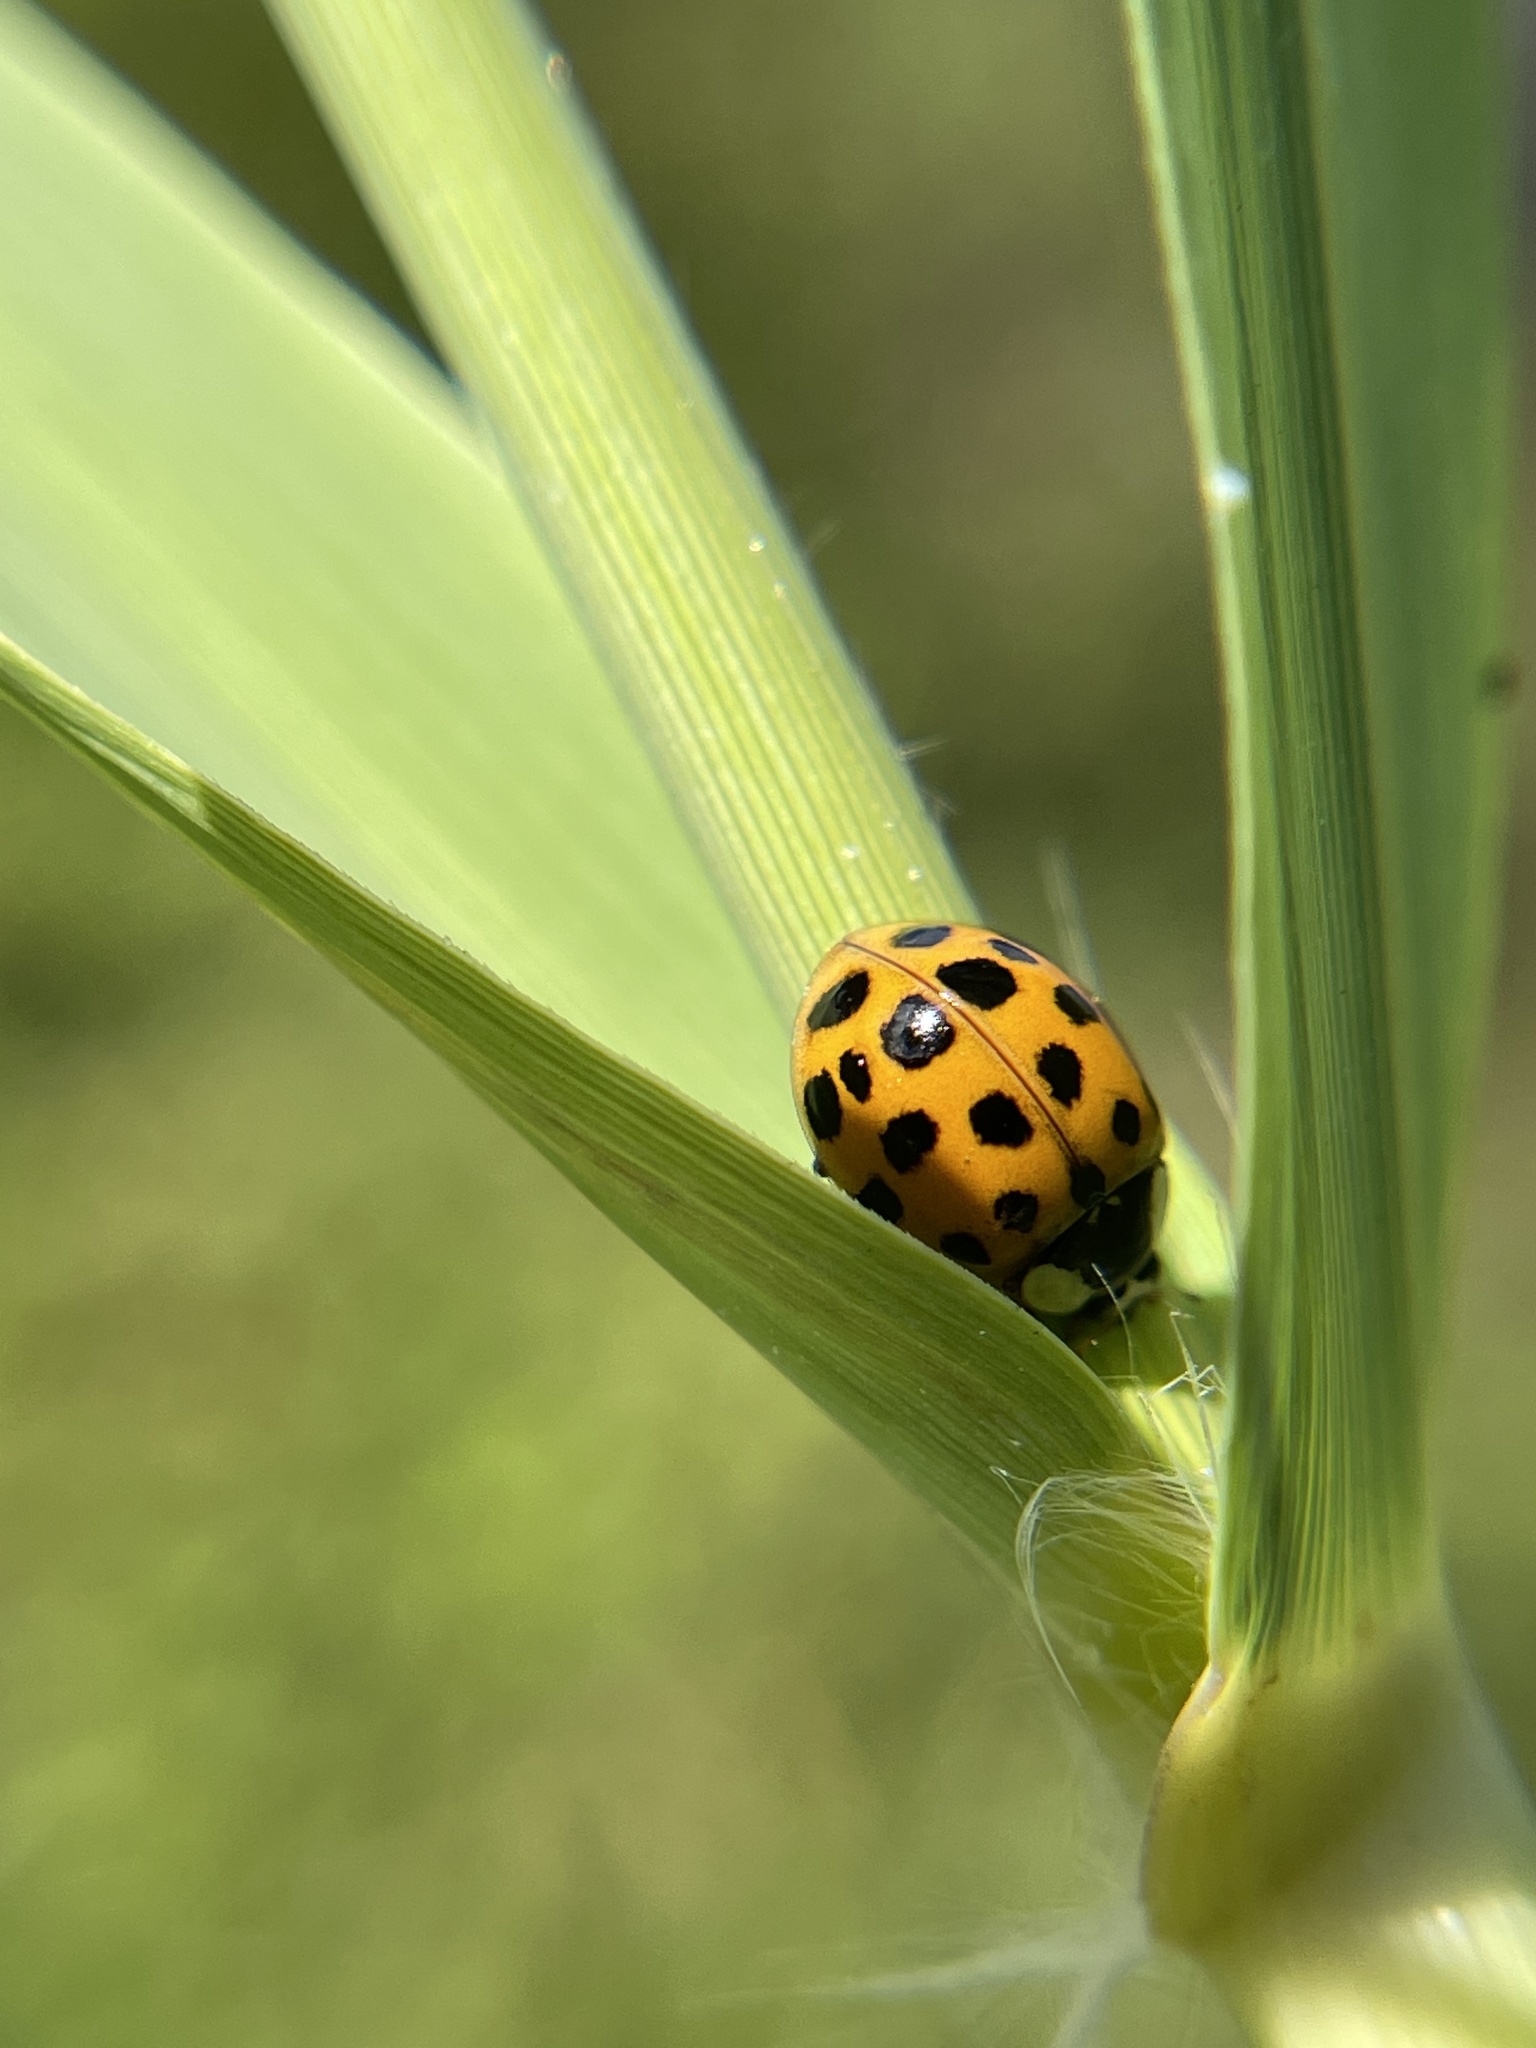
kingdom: Animalia
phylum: Arthropoda
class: Insecta
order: Coleoptera
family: Coccinellidae
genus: Harmonia
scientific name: Harmonia axyridis
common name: Harlequin ladybird
